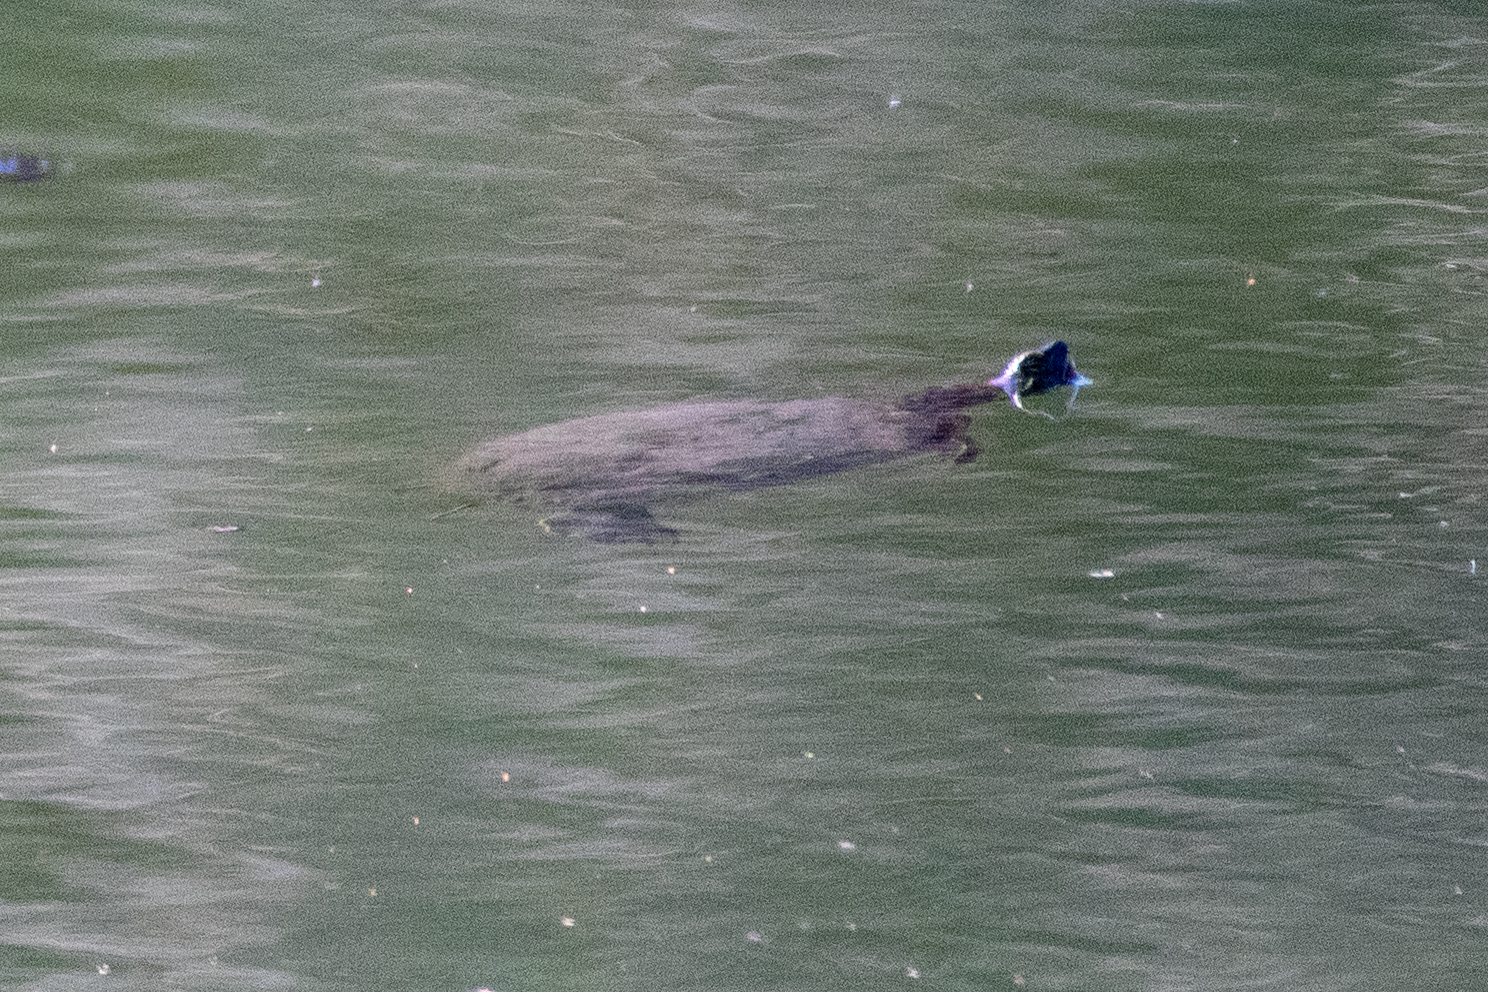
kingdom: Animalia
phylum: Chordata
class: Testudines
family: Emydidae
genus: Trachemys
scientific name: Trachemys scripta
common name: Slider
